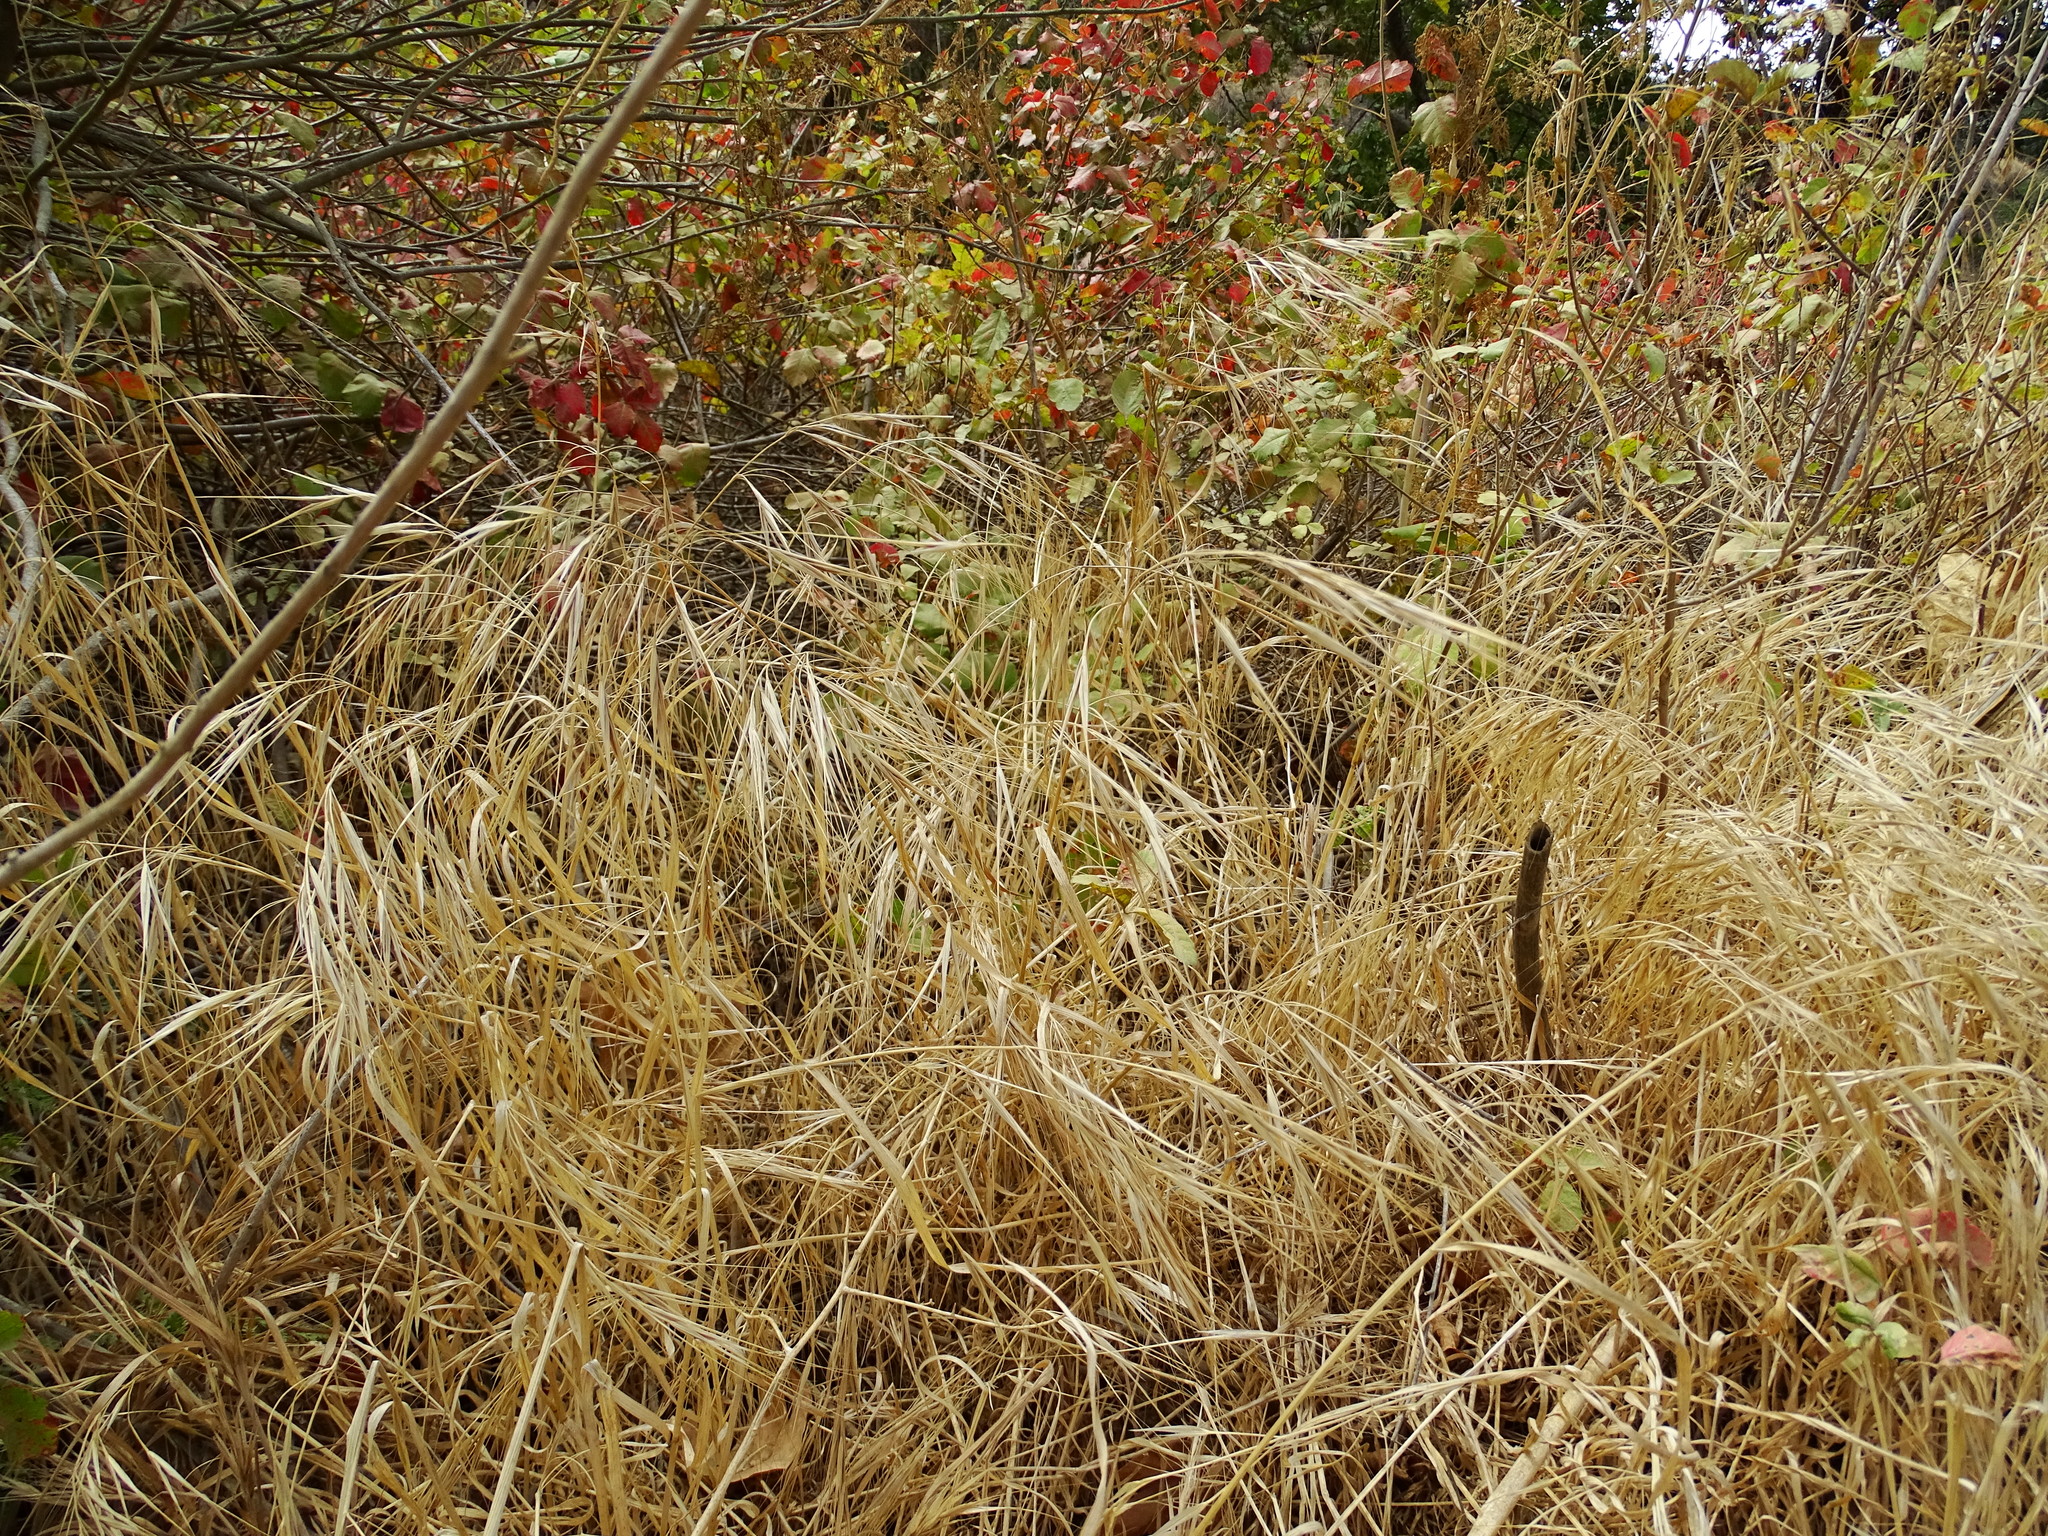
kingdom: Plantae
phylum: Tracheophyta
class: Liliopsida
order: Poales
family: Poaceae
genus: Bromus
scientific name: Bromus diandrus
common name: Ripgut brome
